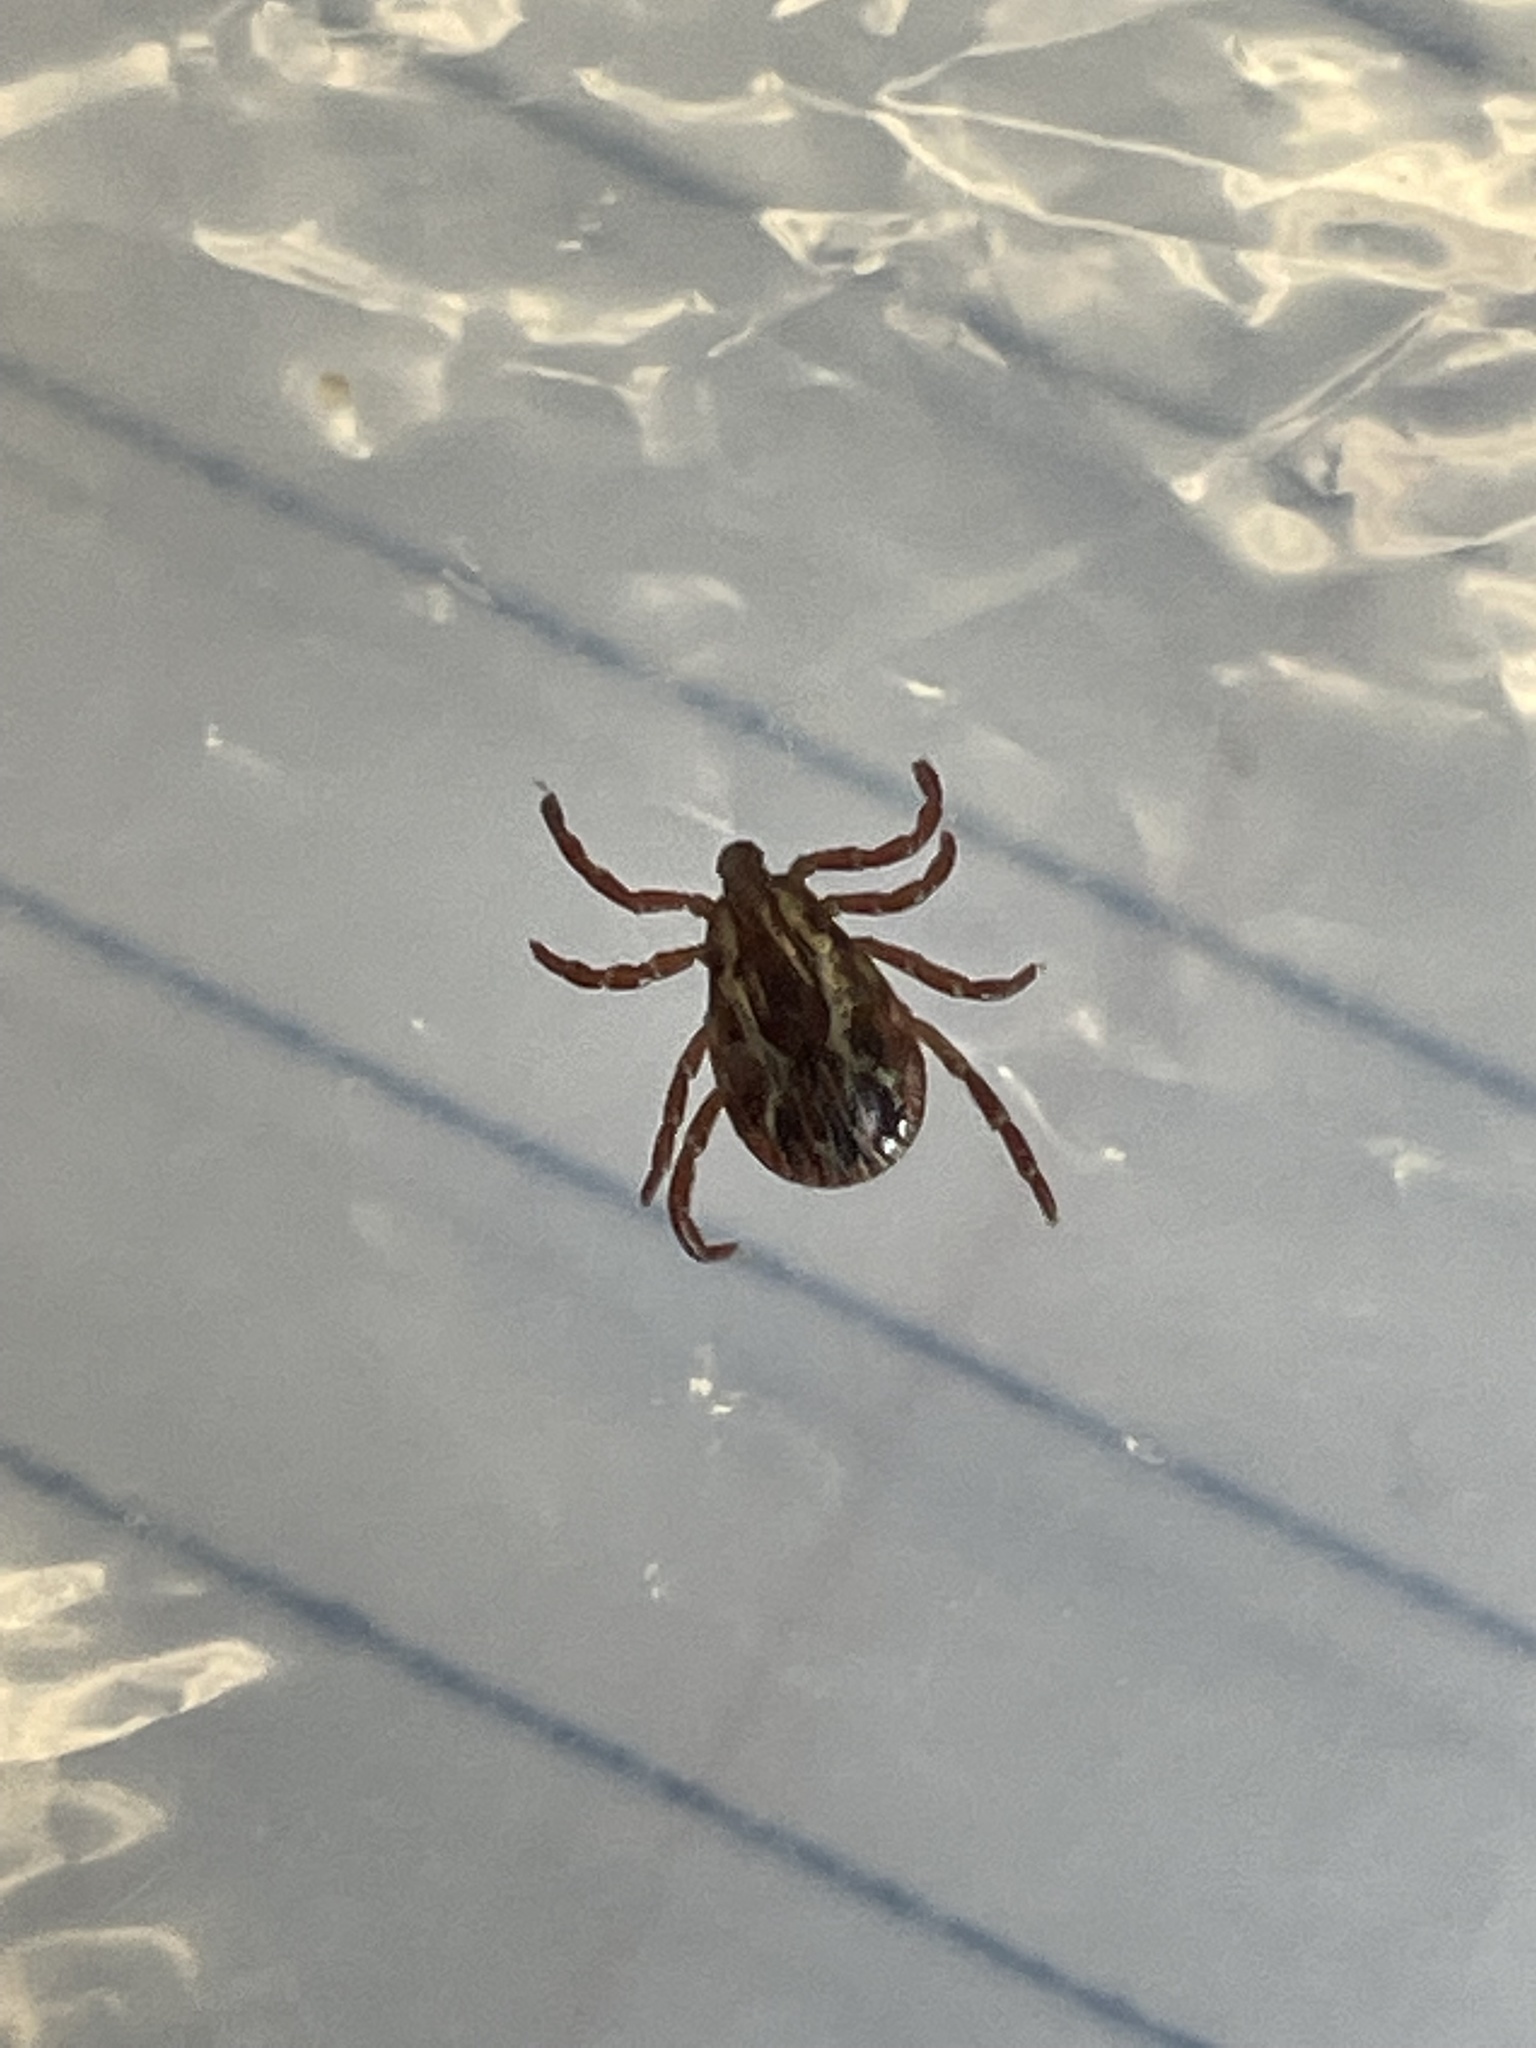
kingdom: Animalia
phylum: Arthropoda
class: Arachnida
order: Ixodida
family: Ixodidae
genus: Dermacentor
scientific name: Dermacentor variabilis
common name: American dog tick
